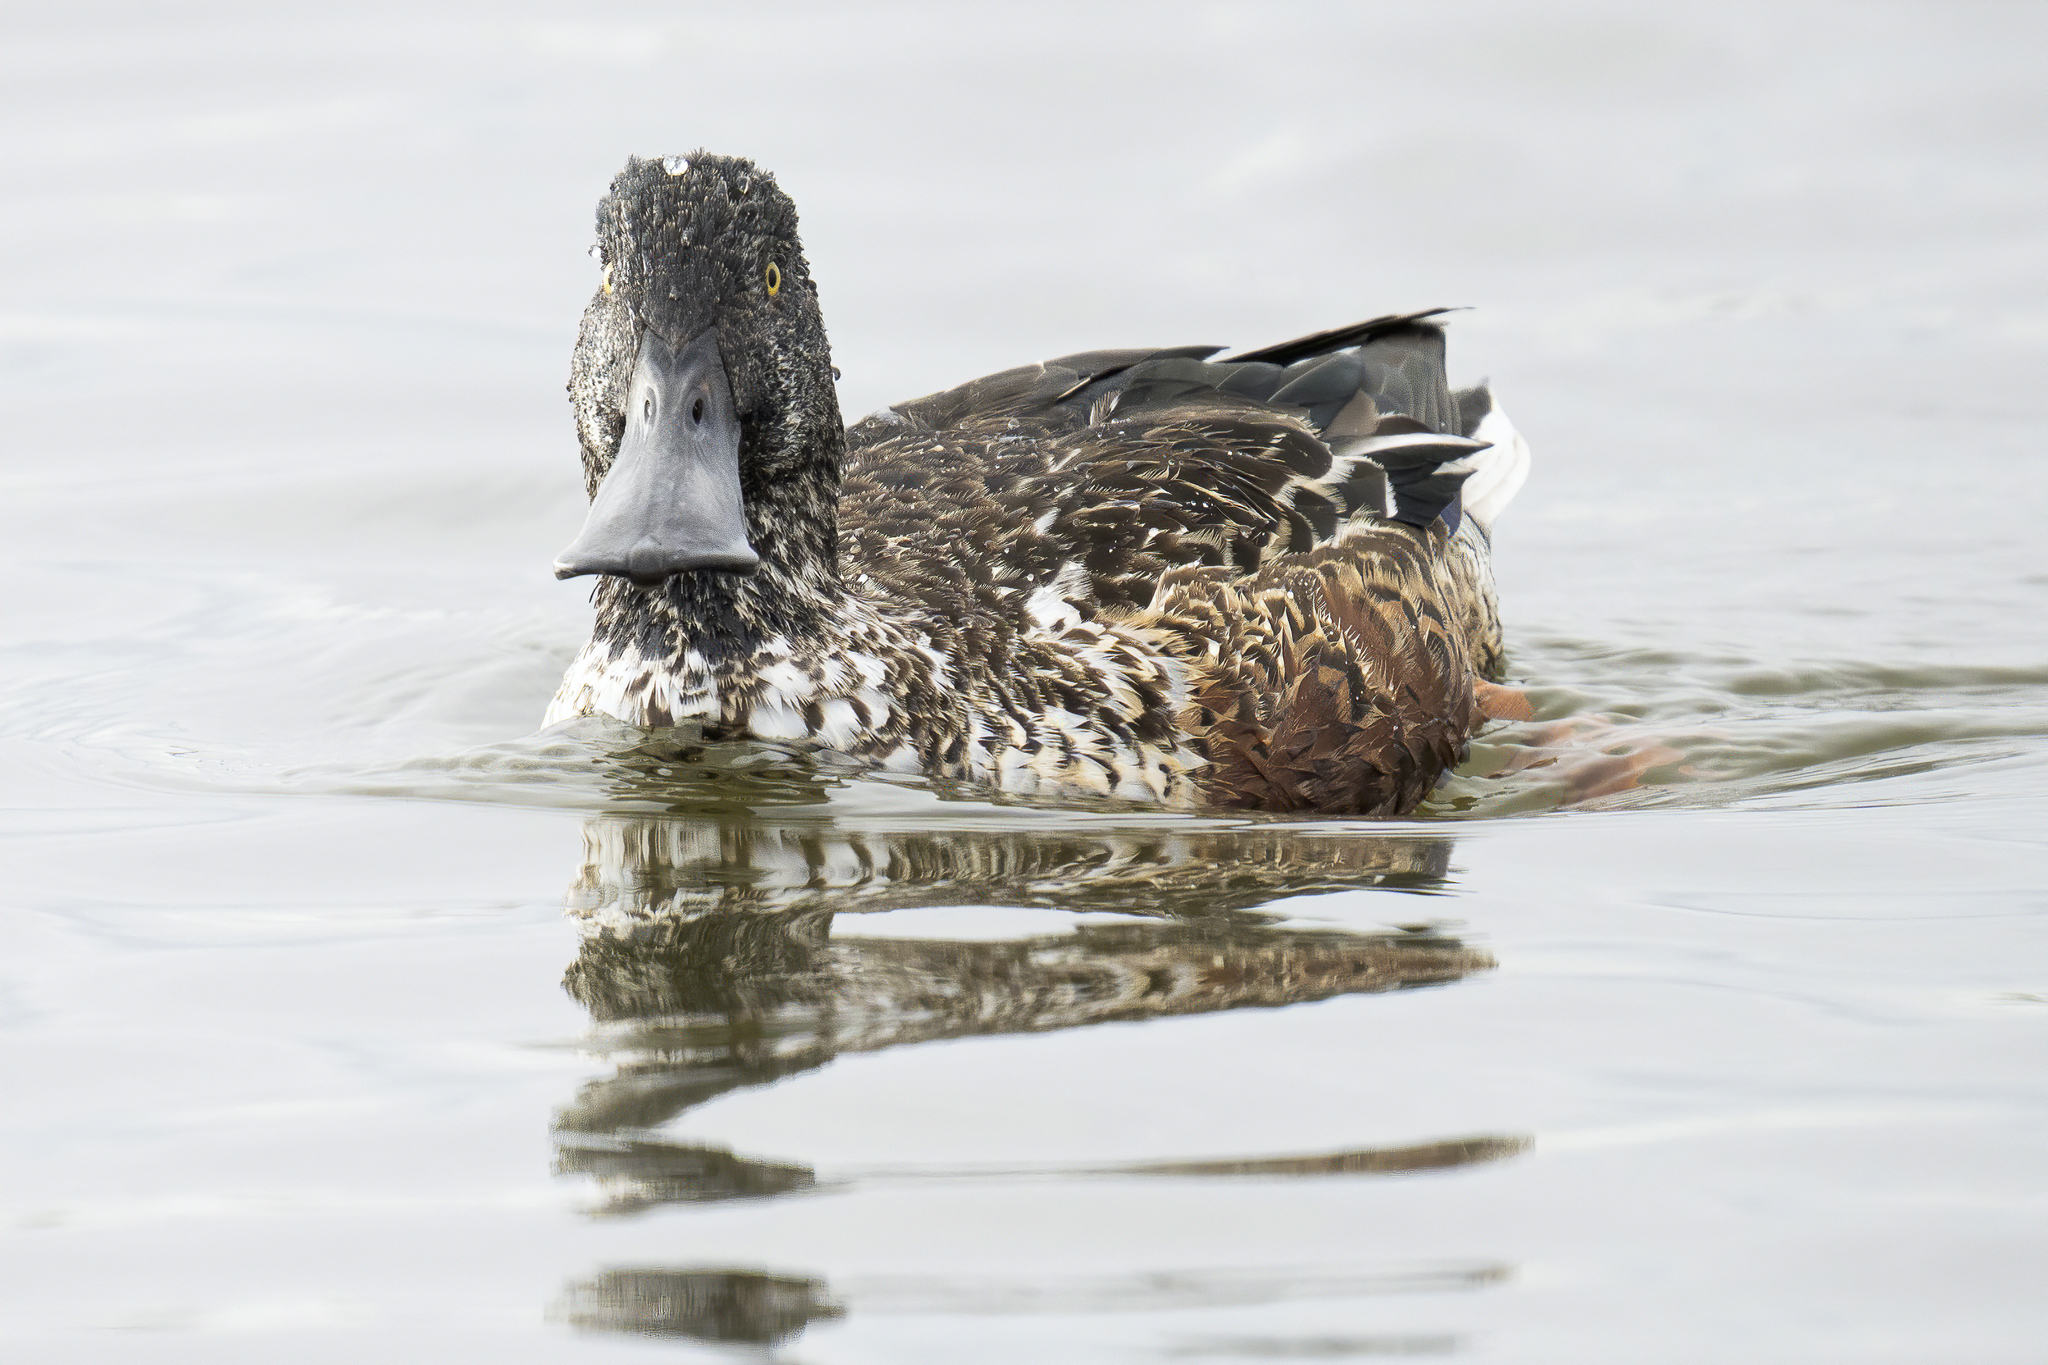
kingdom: Animalia
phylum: Chordata
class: Aves
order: Anseriformes
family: Anatidae
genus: Spatula
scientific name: Spatula clypeata
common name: Northern shoveler
